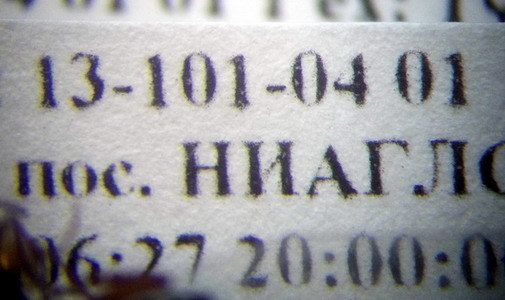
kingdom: Animalia
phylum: Arthropoda
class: Insecta
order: Hymenoptera
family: Formicidae
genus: Camponotus
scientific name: Camponotus fallax
